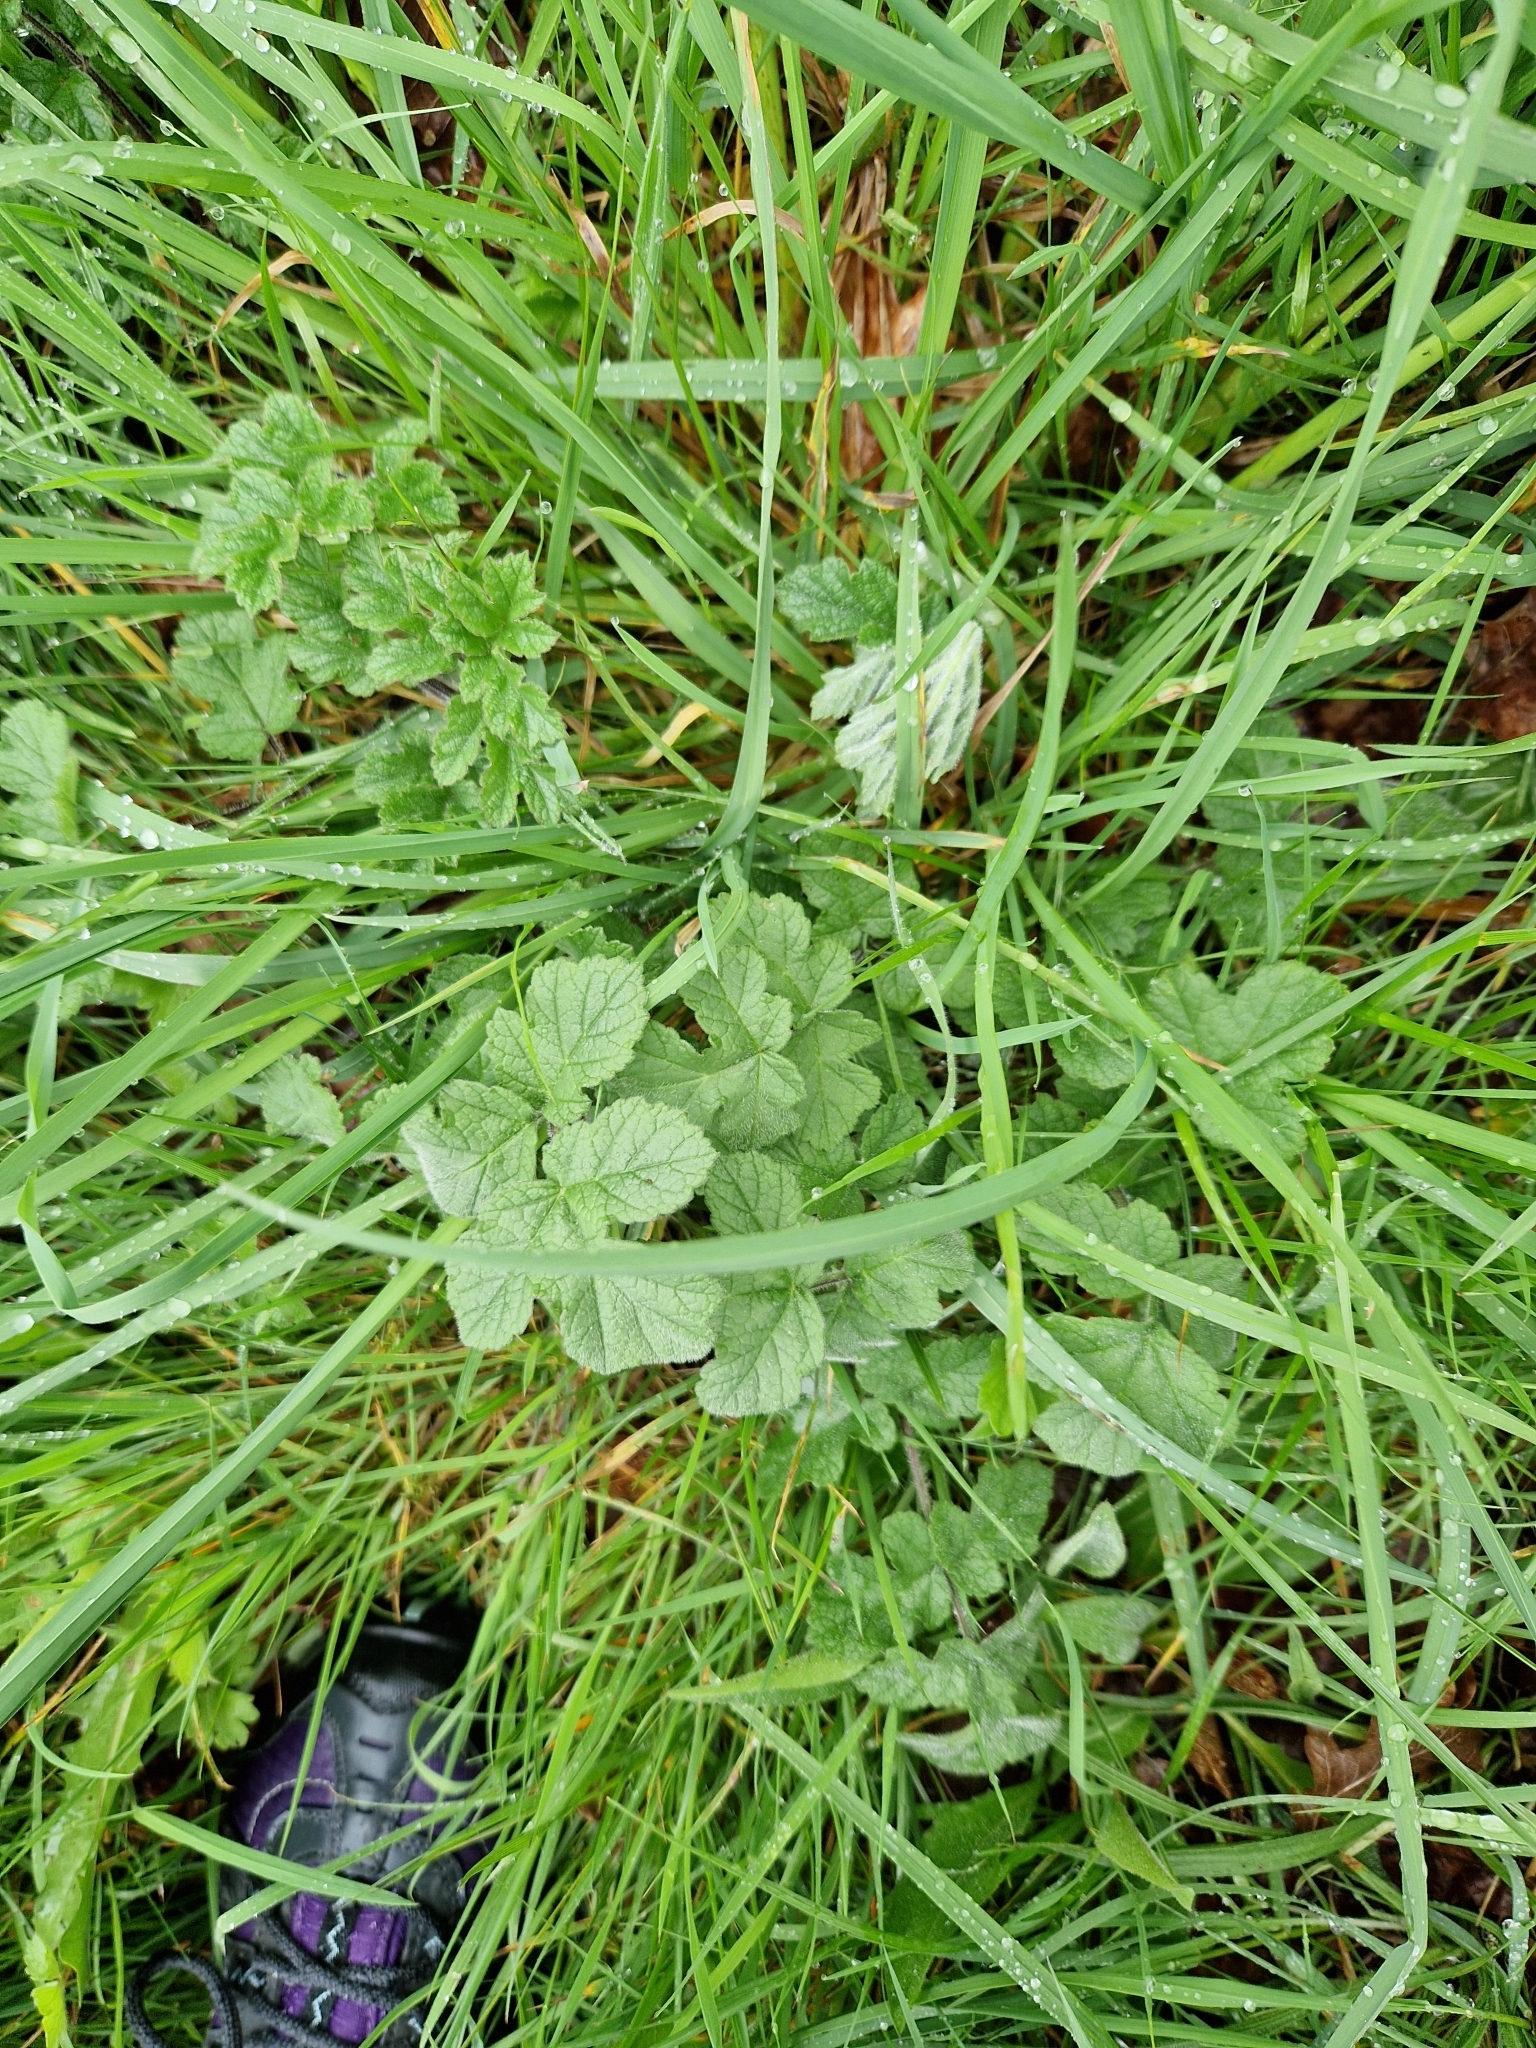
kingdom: Plantae
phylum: Tracheophyta
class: Magnoliopsida
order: Apiales
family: Apiaceae
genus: Heracleum
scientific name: Heracleum sphondylium
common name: Hogweed
